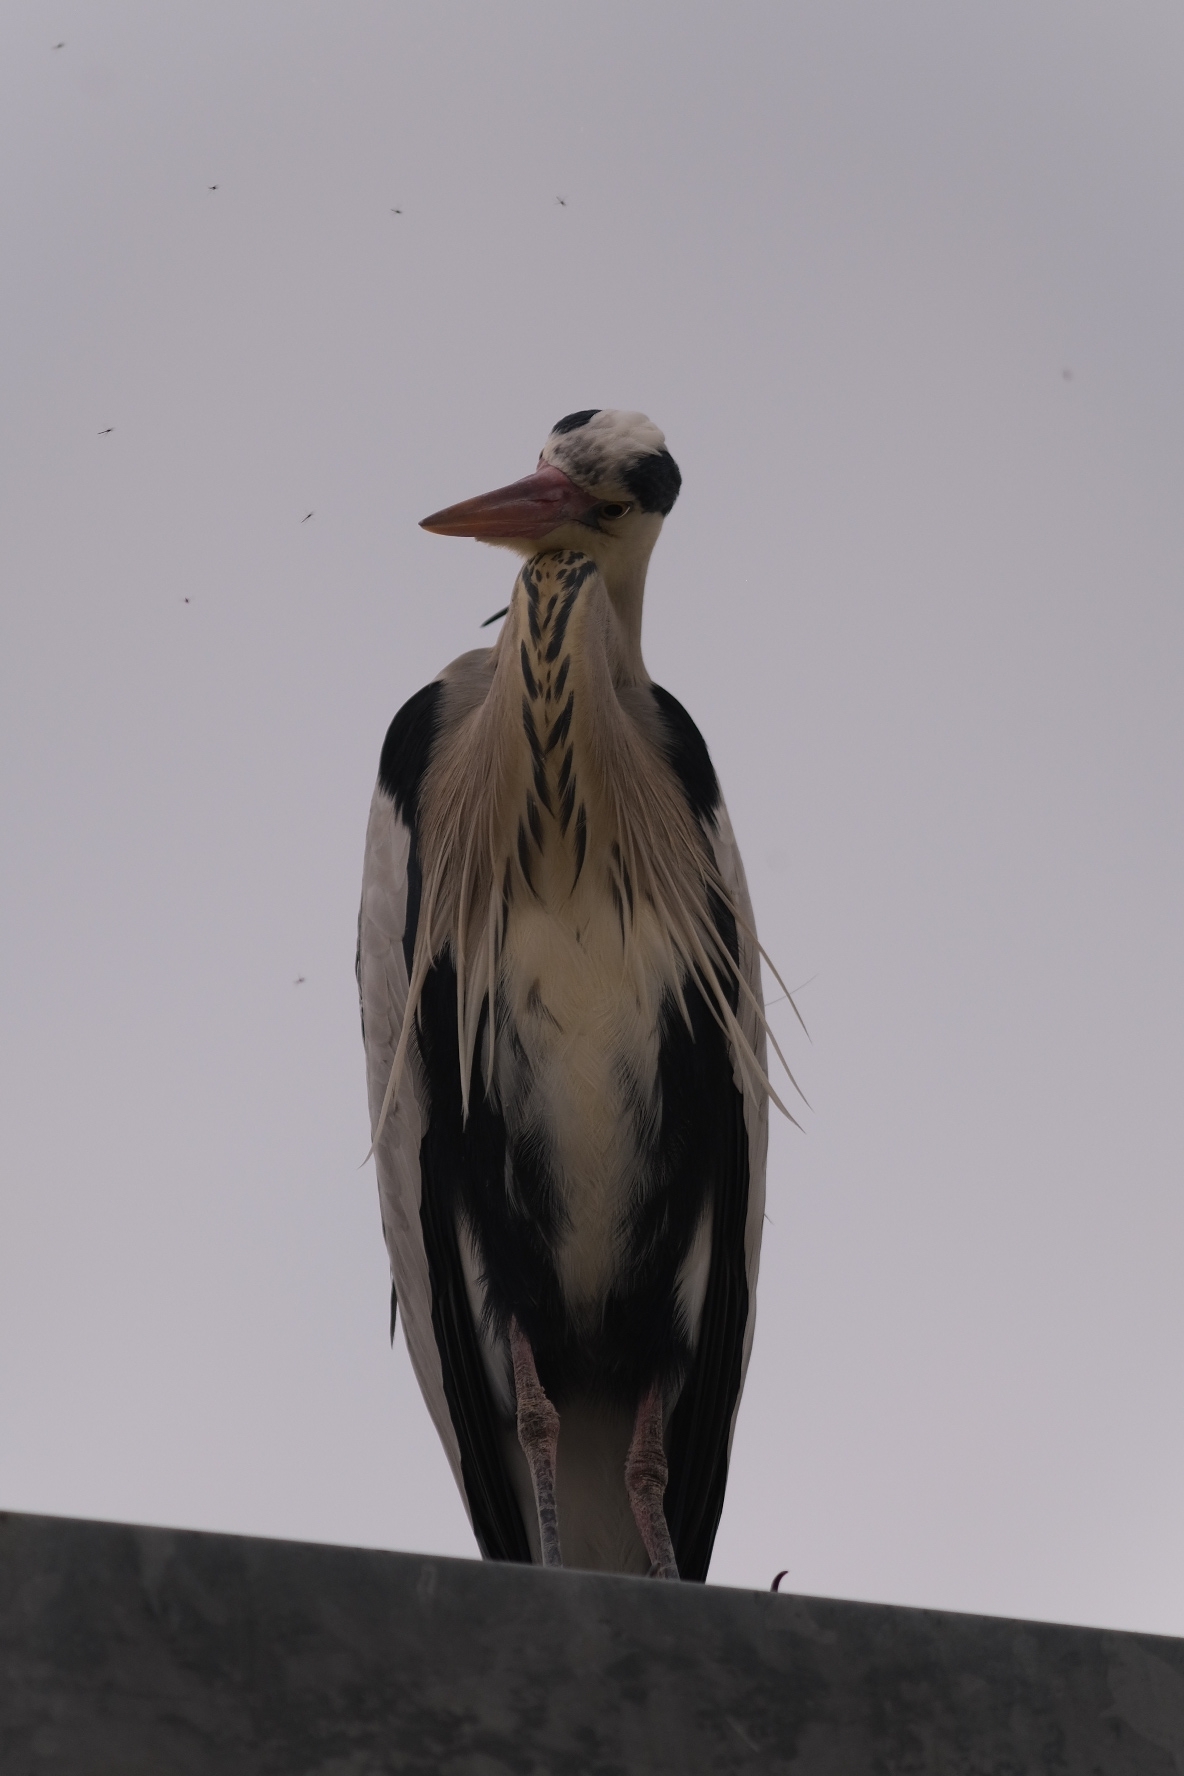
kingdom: Animalia
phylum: Chordata
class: Aves
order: Pelecaniformes
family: Ardeidae
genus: Ardea
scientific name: Ardea cinerea
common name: Grey heron
